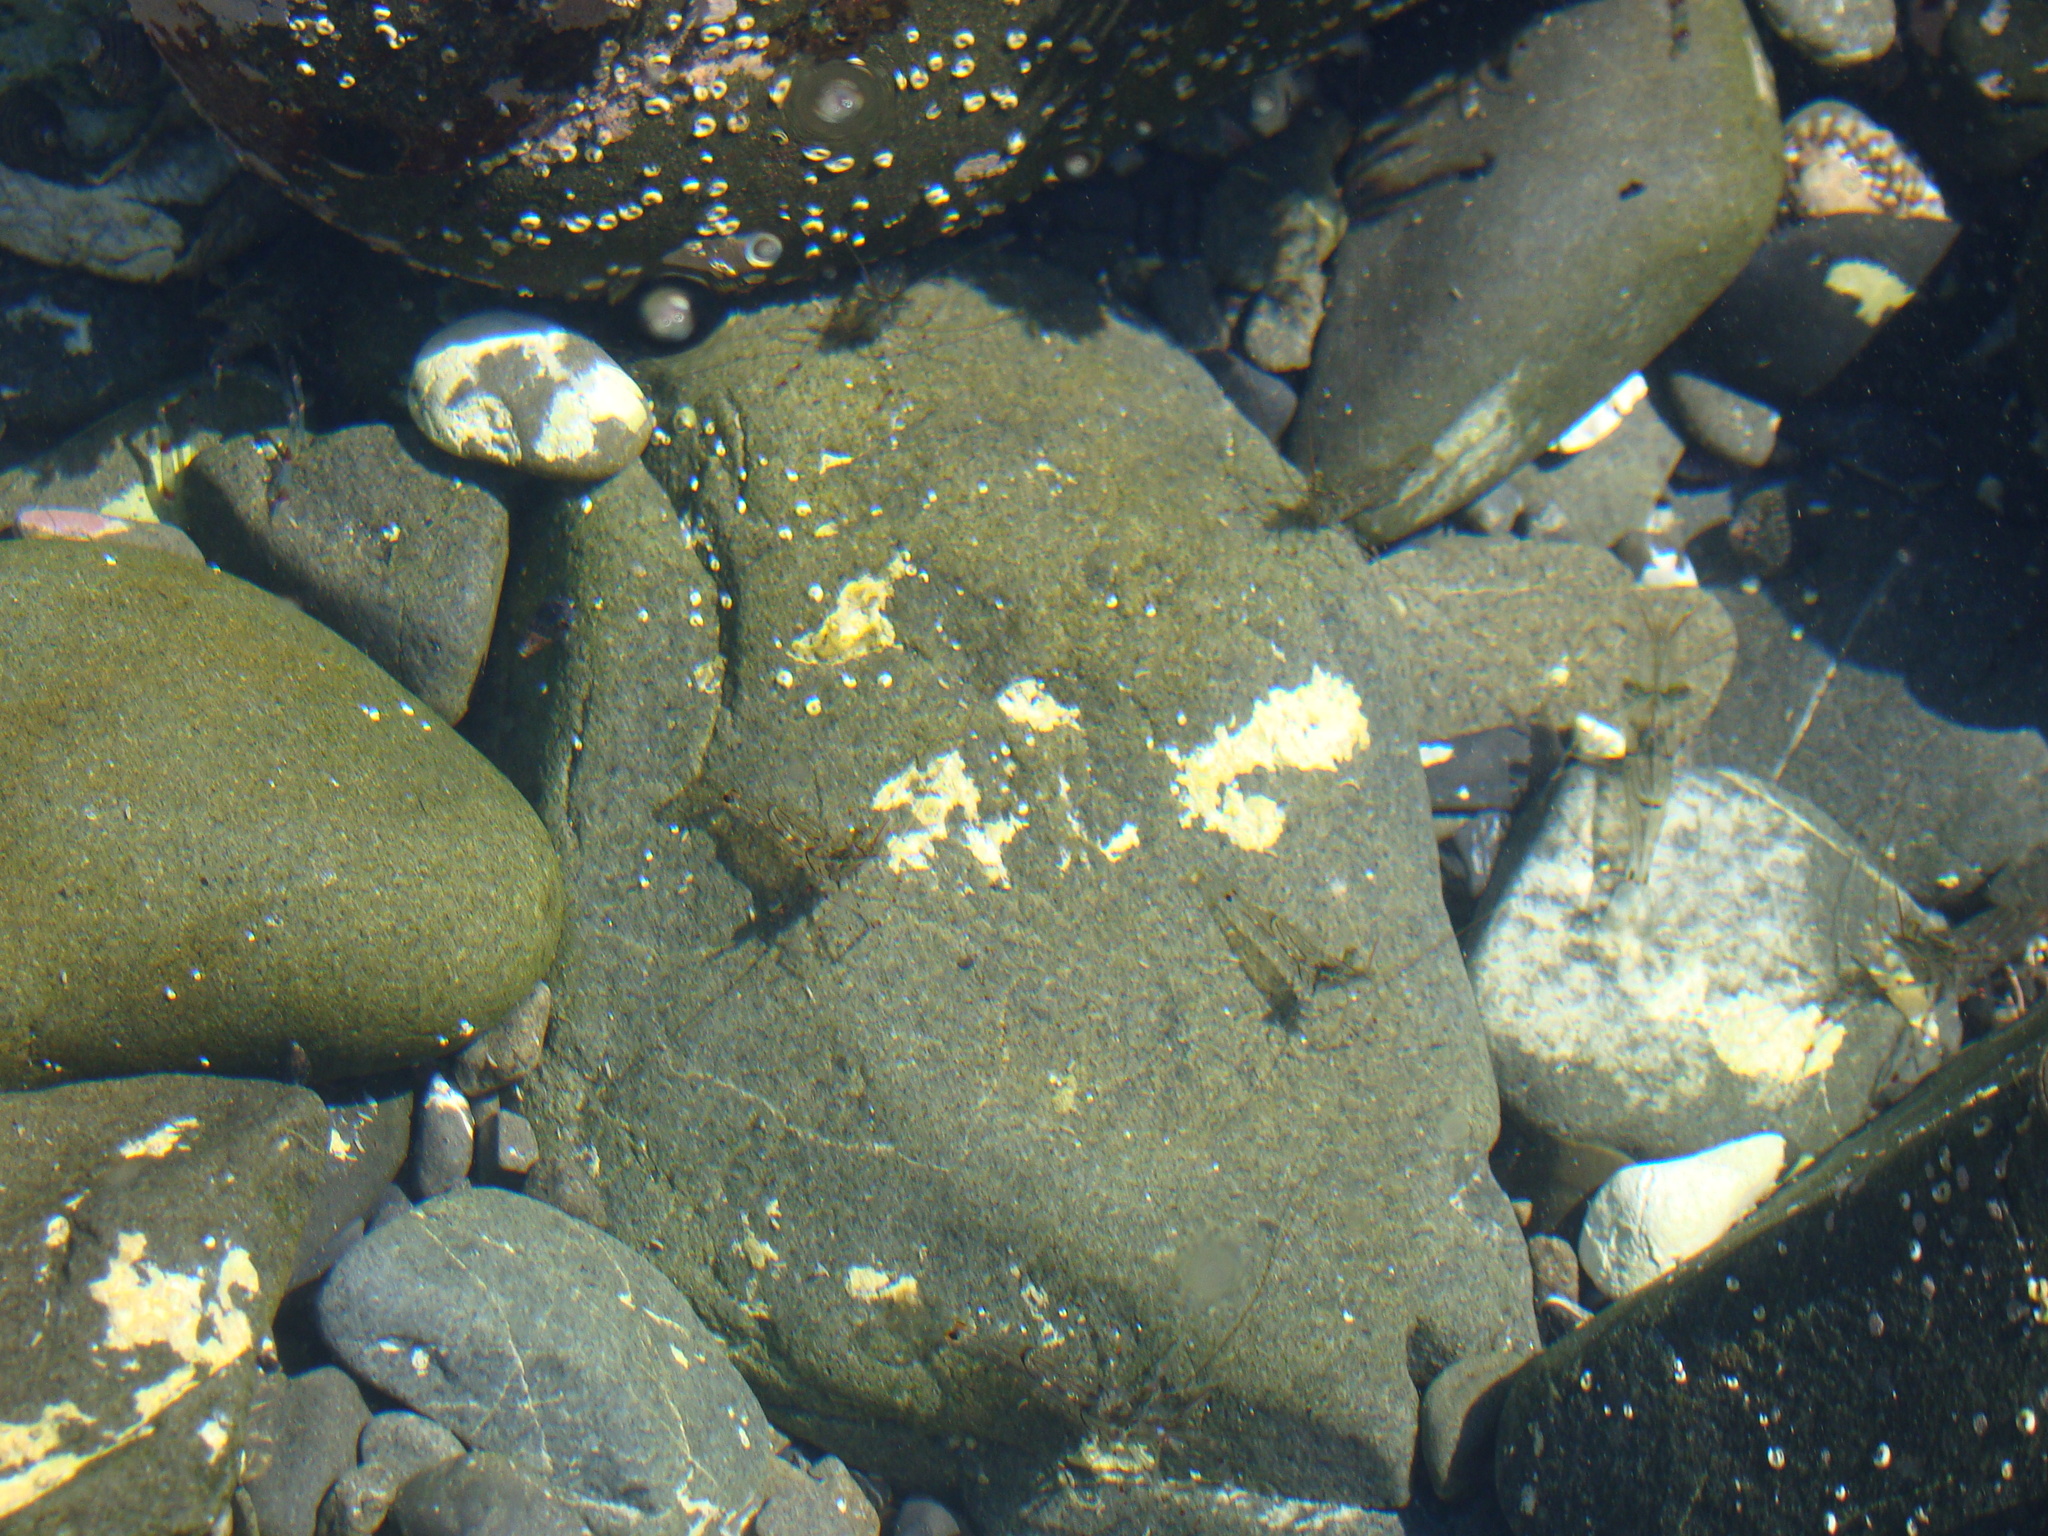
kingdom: Animalia
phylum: Arthropoda
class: Malacostraca
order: Decapoda
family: Palaemonidae
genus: Palaemon
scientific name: Palaemon affinis
